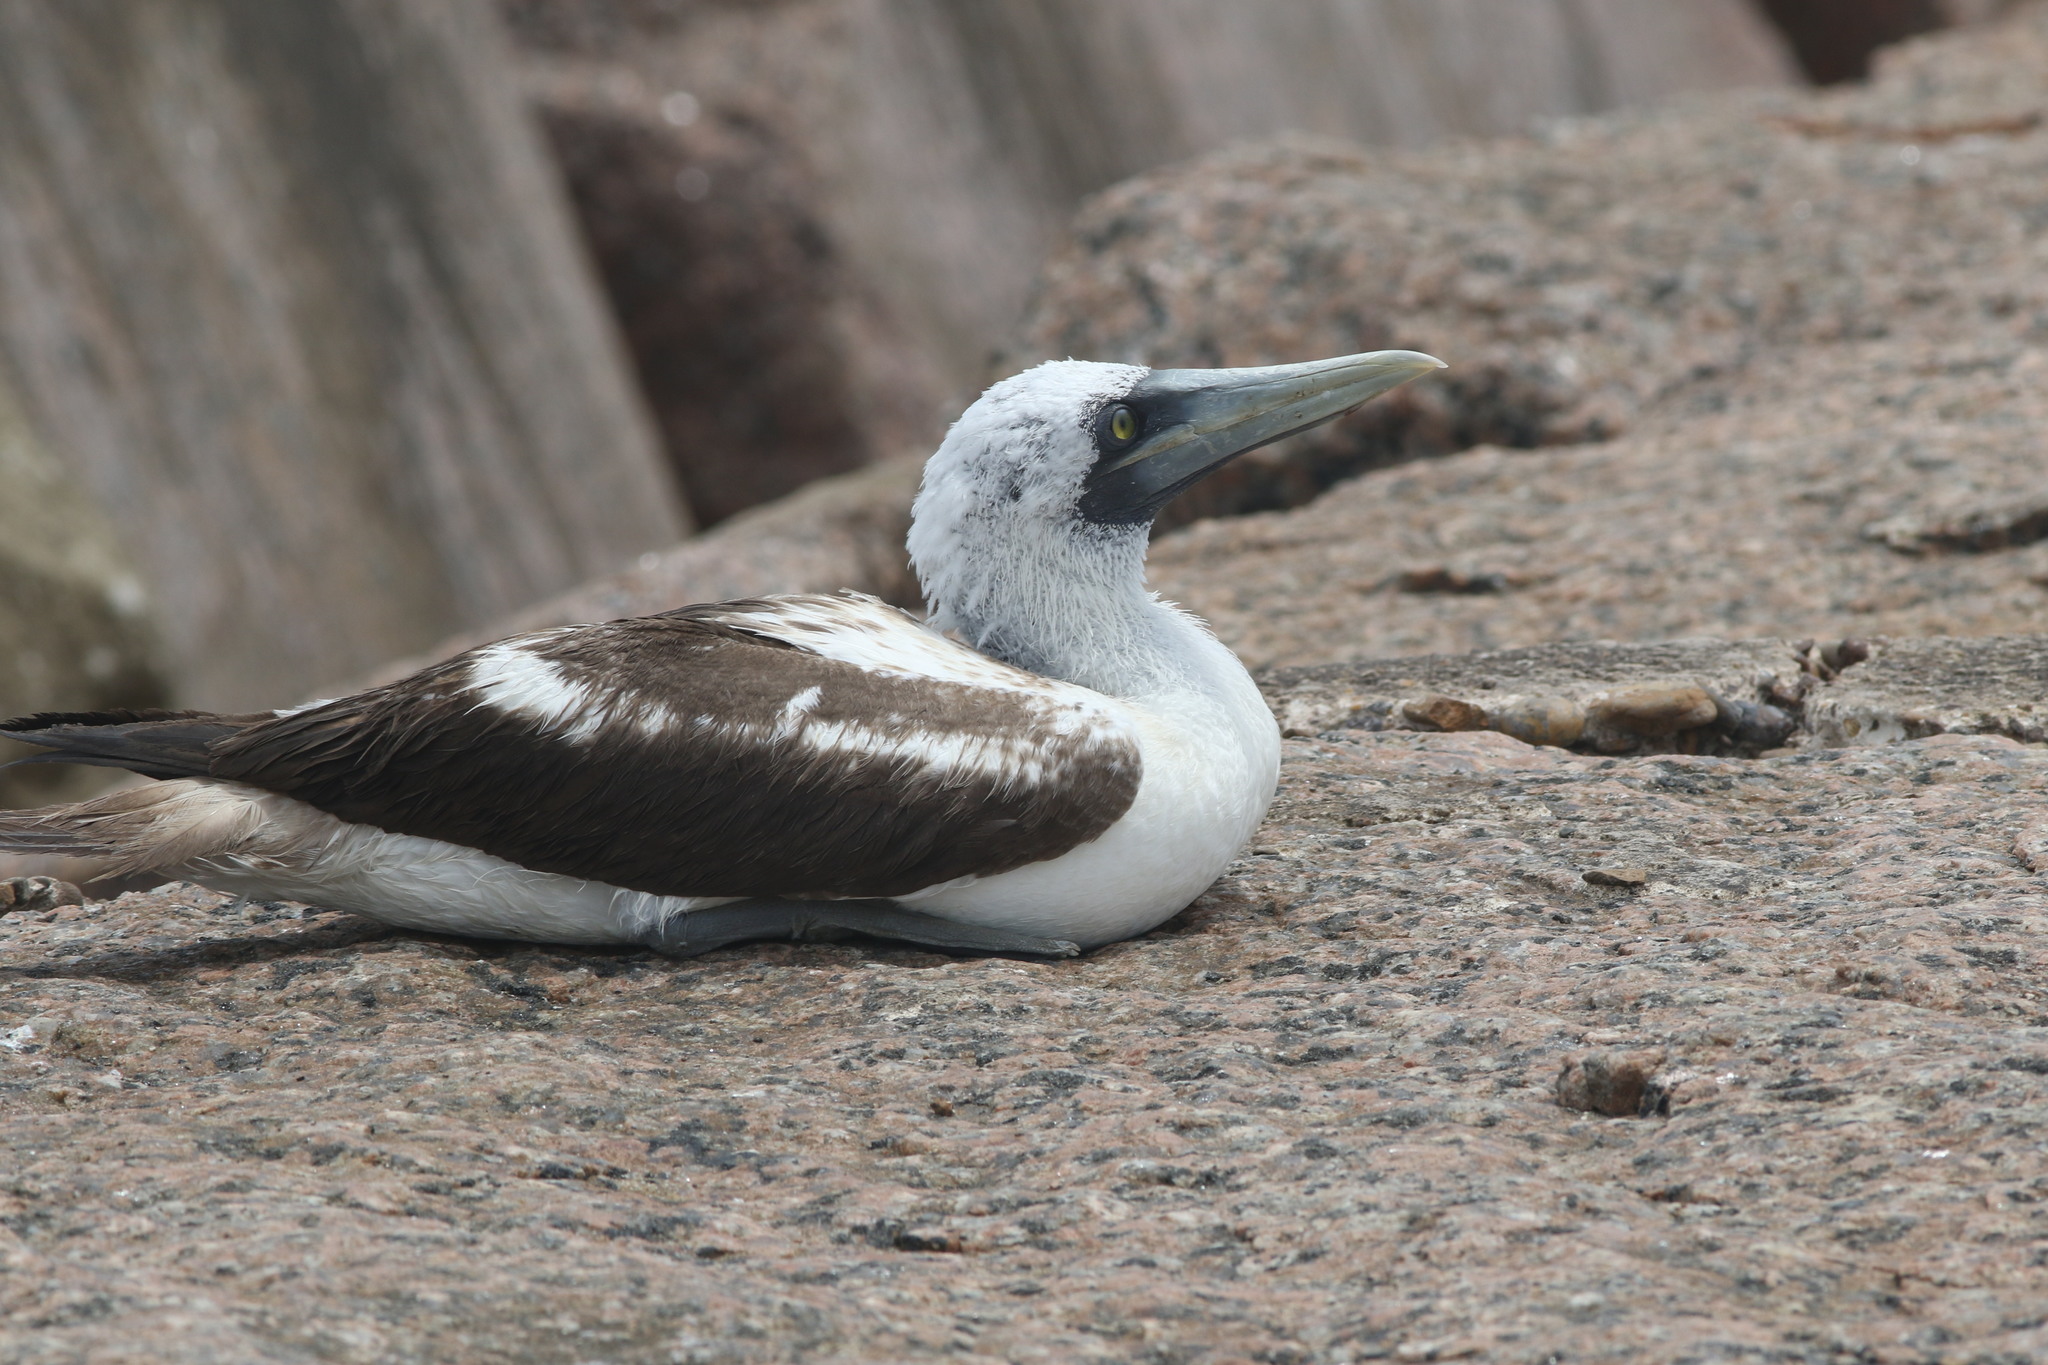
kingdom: Animalia
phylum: Chordata
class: Aves
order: Suliformes
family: Sulidae
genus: Sula
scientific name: Sula dactylatra
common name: Masked booby
